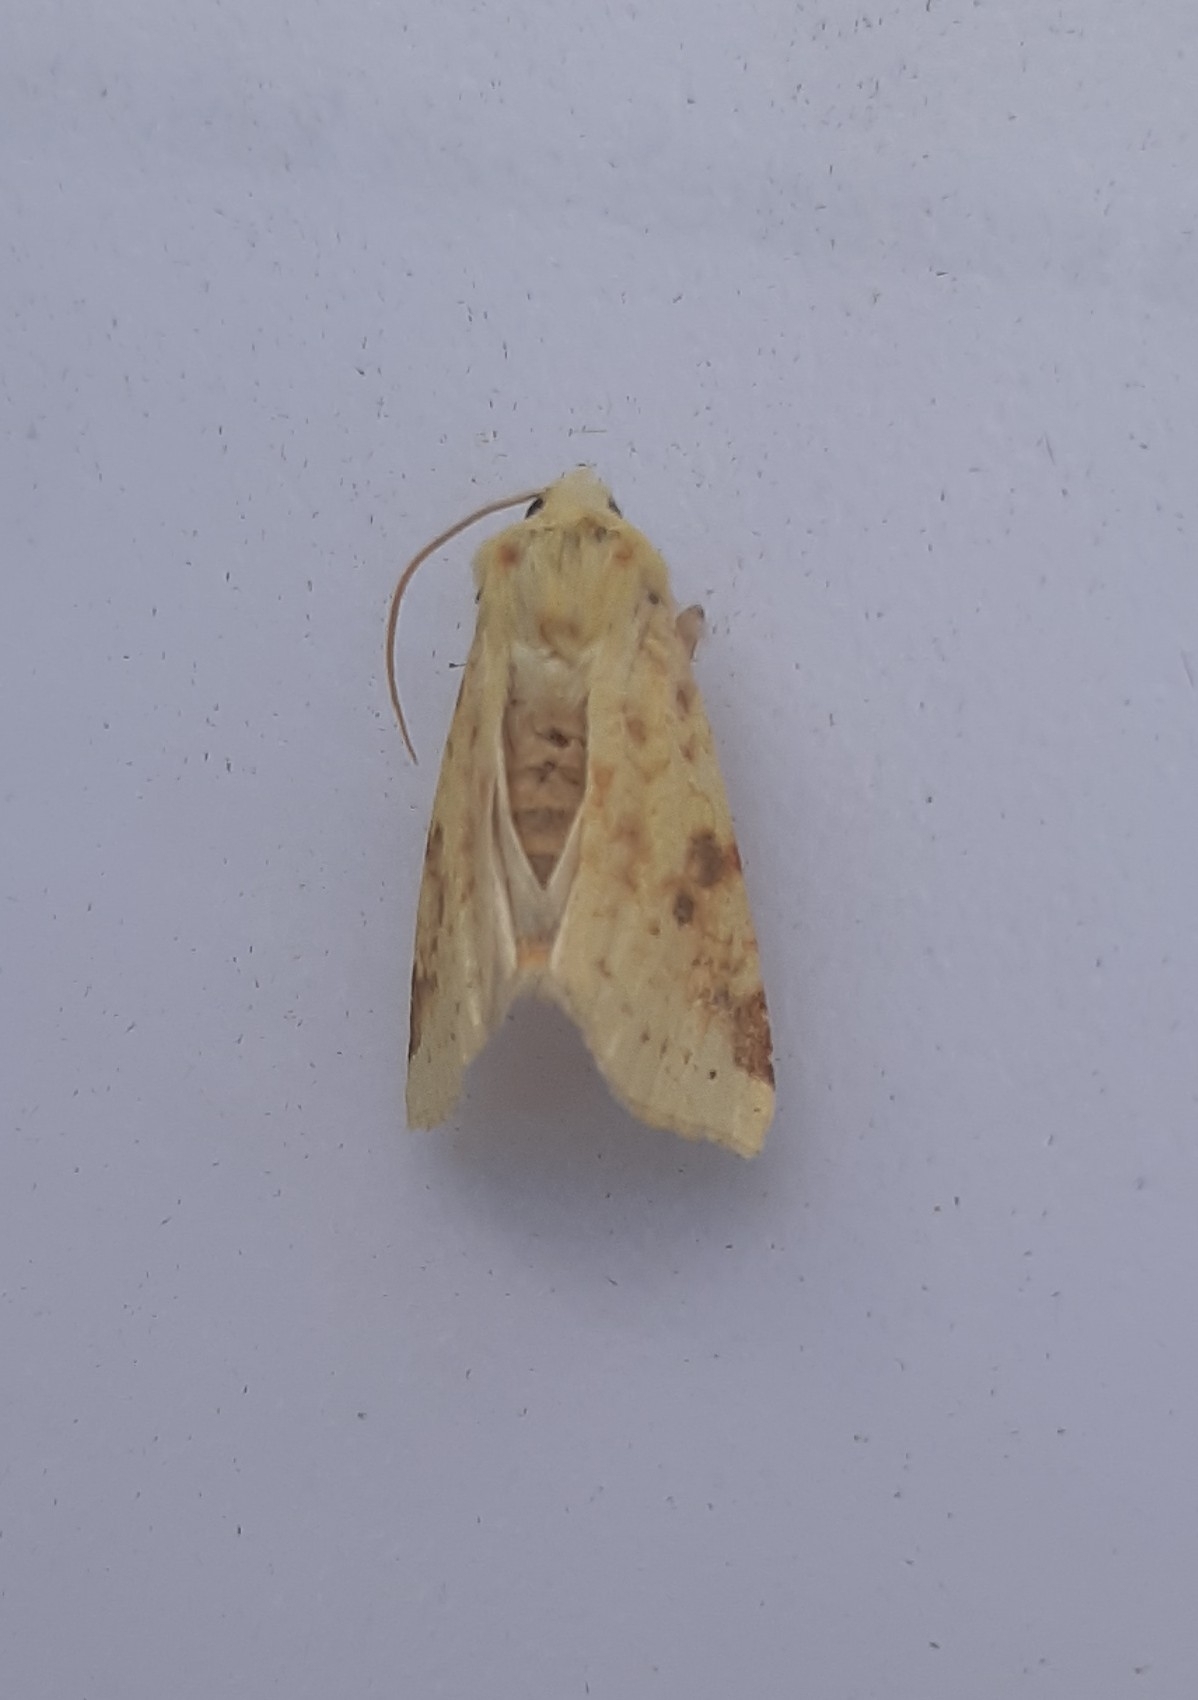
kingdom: Animalia
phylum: Arthropoda
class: Insecta
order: Lepidoptera
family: Noctuidae
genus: Xanthia
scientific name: Xanthia icteritia
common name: The sallow
